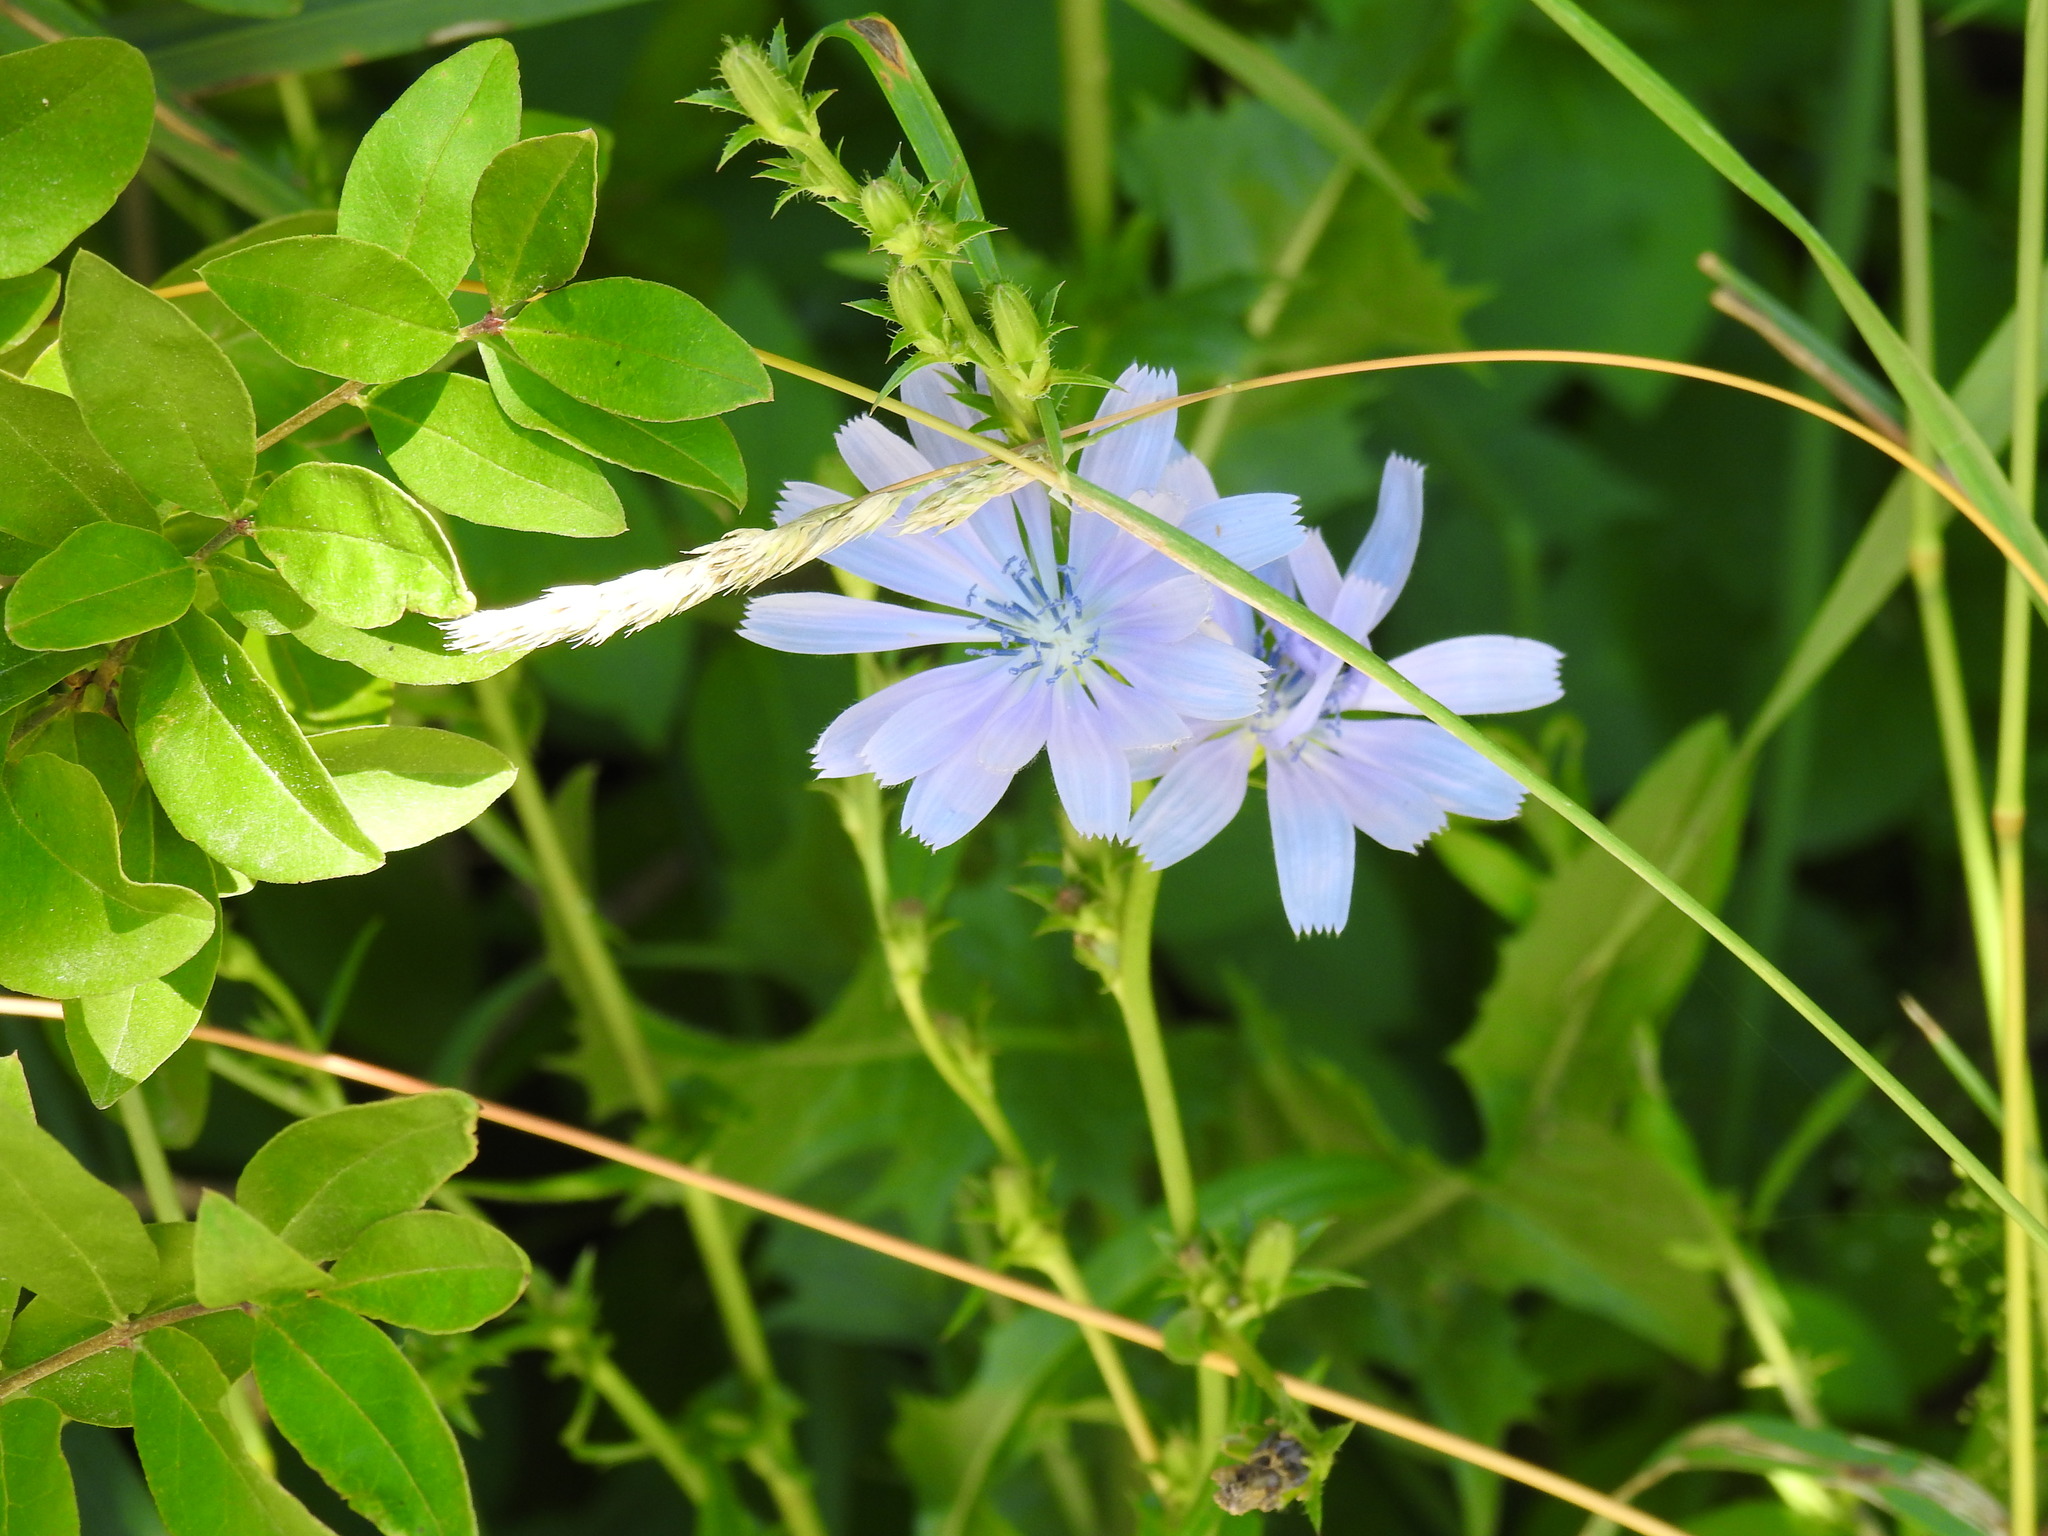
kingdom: Plantae
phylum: Tracheophyta
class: Magnoliopsida
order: Asterales
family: Asteraceae
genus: Cichorium
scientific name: Cichorium intybus
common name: Chicory
